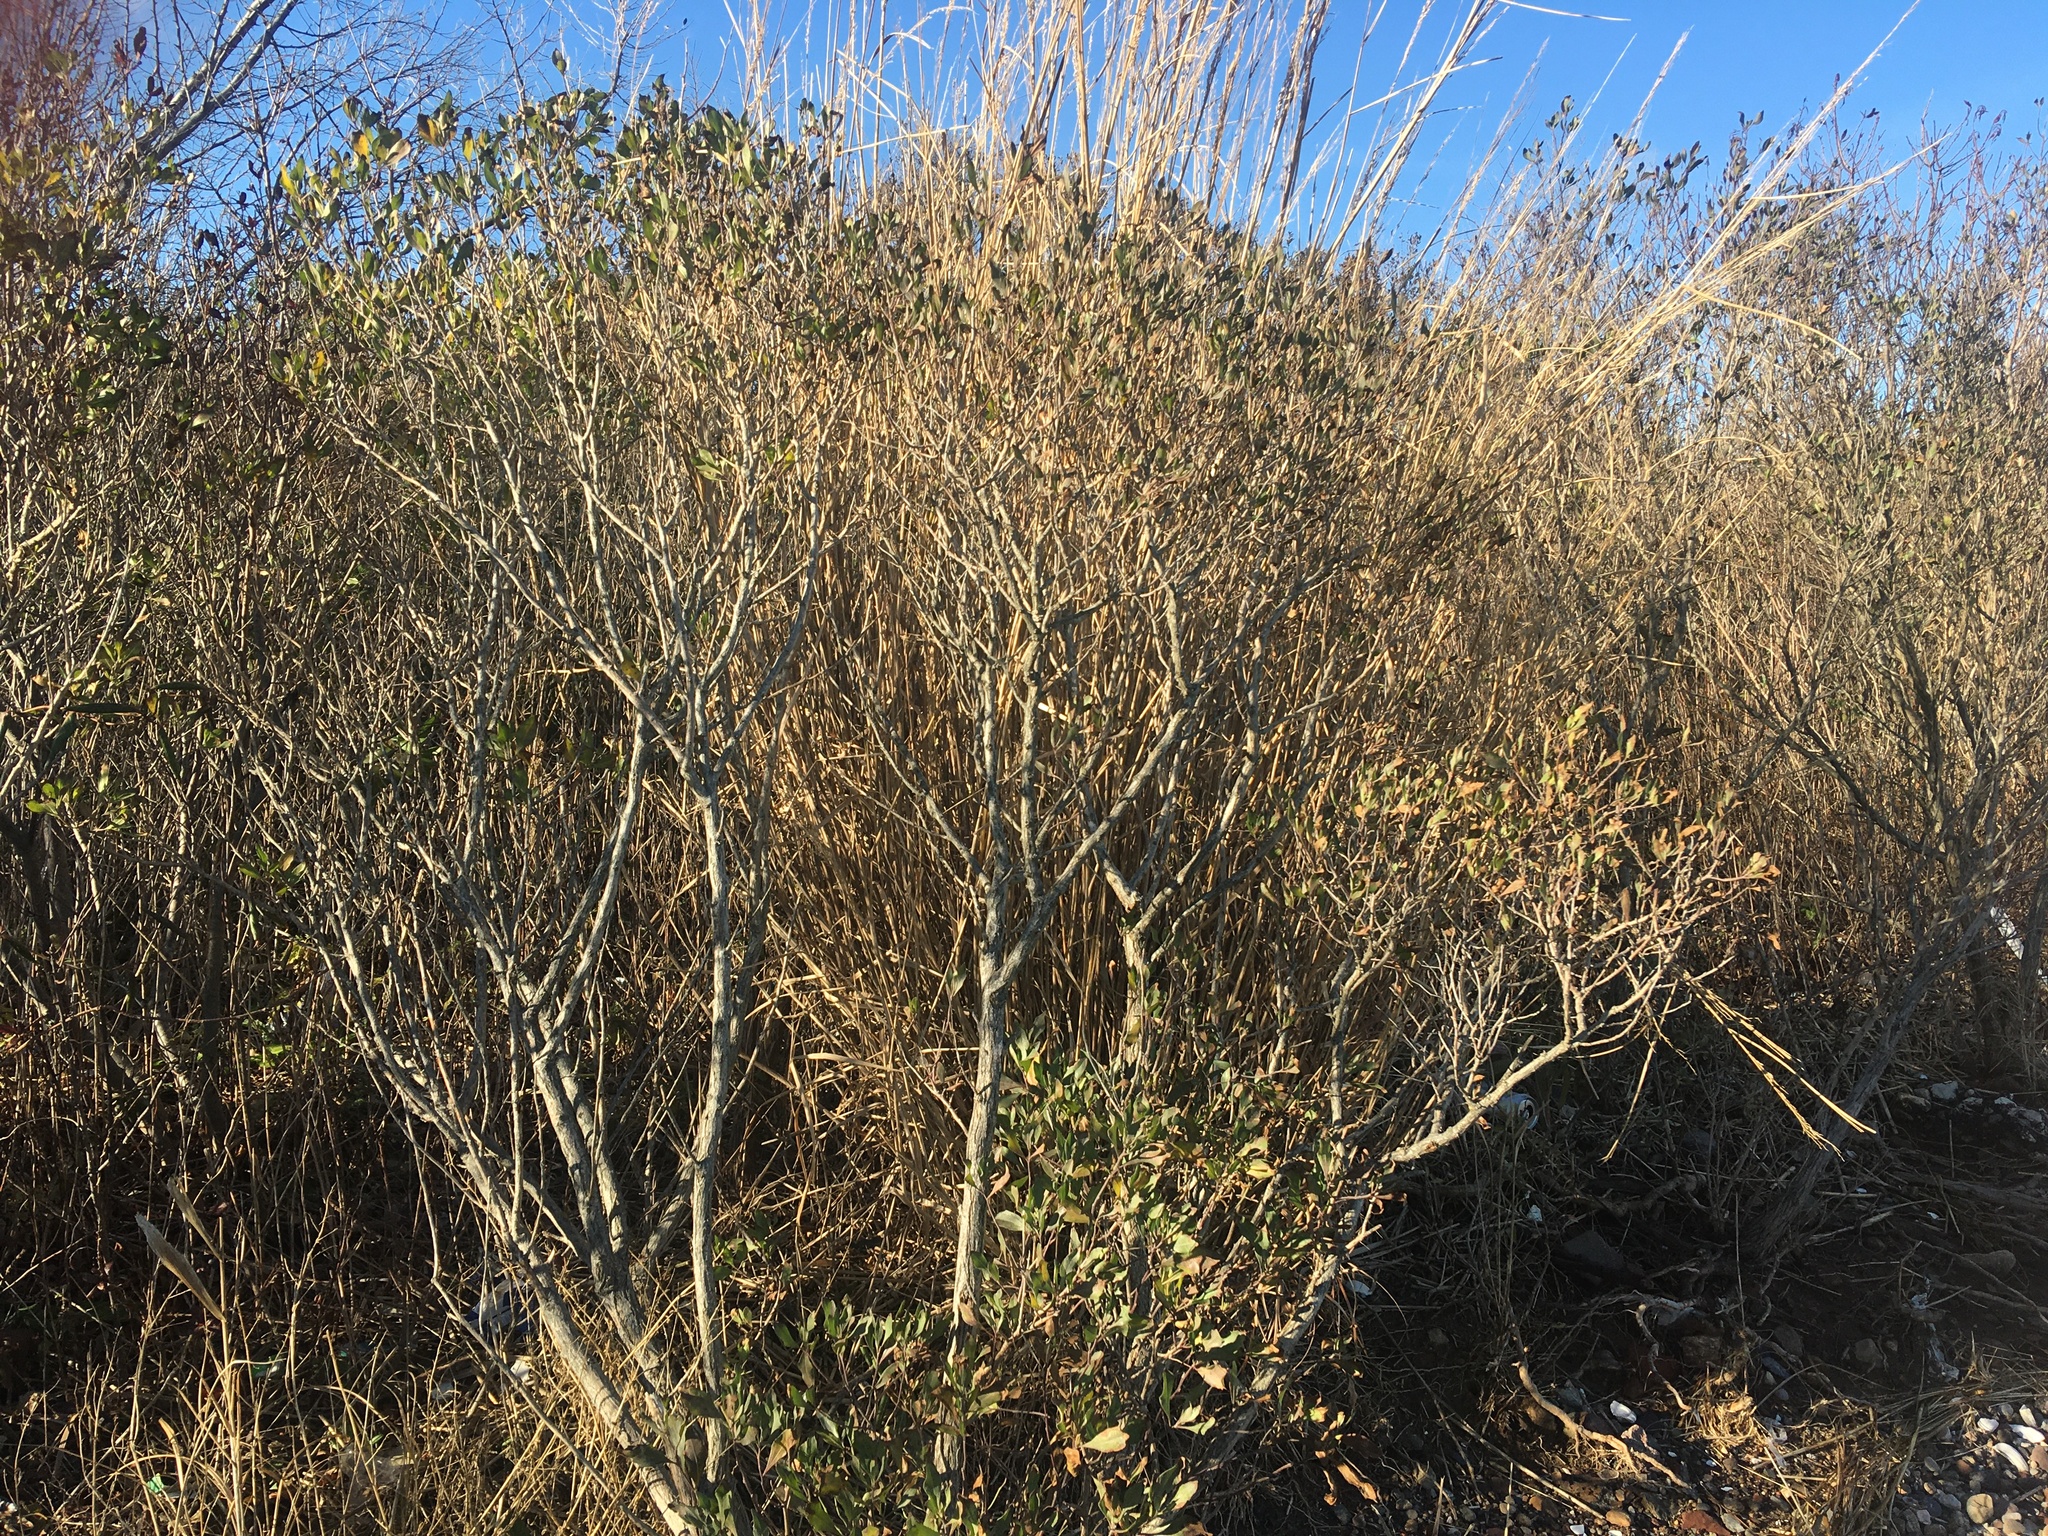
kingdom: Plantae
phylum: Tracheophyta
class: Magnoliopsida
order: Asterales
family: Asteraceae
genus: Baccharis
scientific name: Baccharis halimifolia
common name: Eastern baccharis
